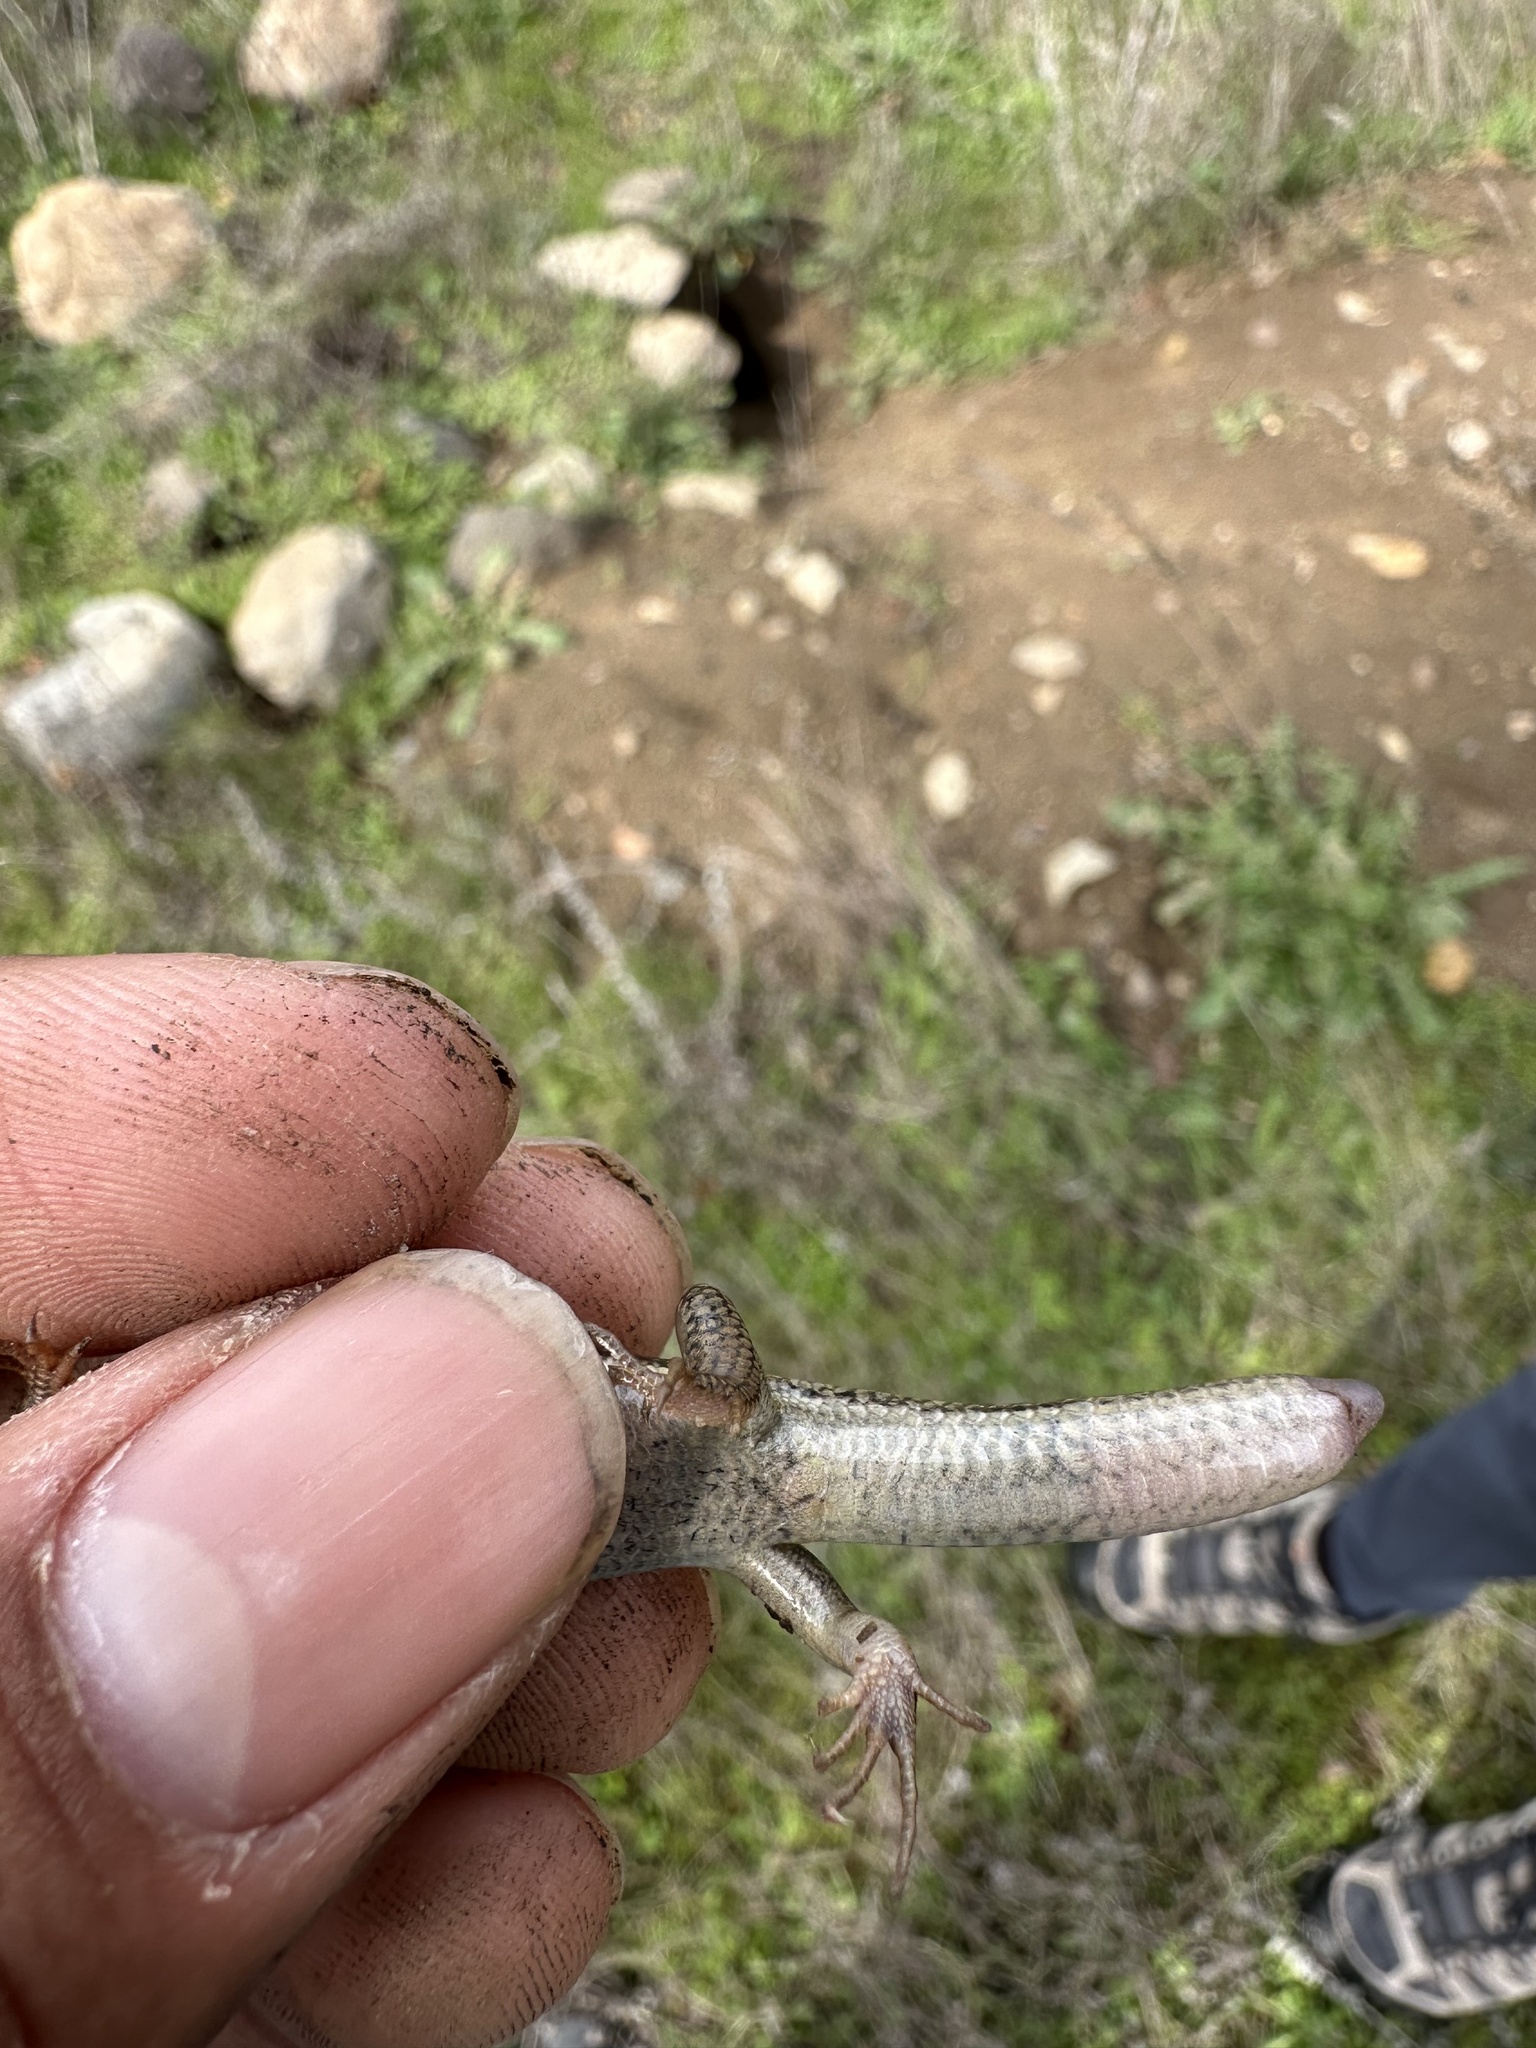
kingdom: Animalia
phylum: Chordata
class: Squamata
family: Scincidae
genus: Plestiodon
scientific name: Plestiodon skiltonianus
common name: Coronado island skink [interparietalis]
